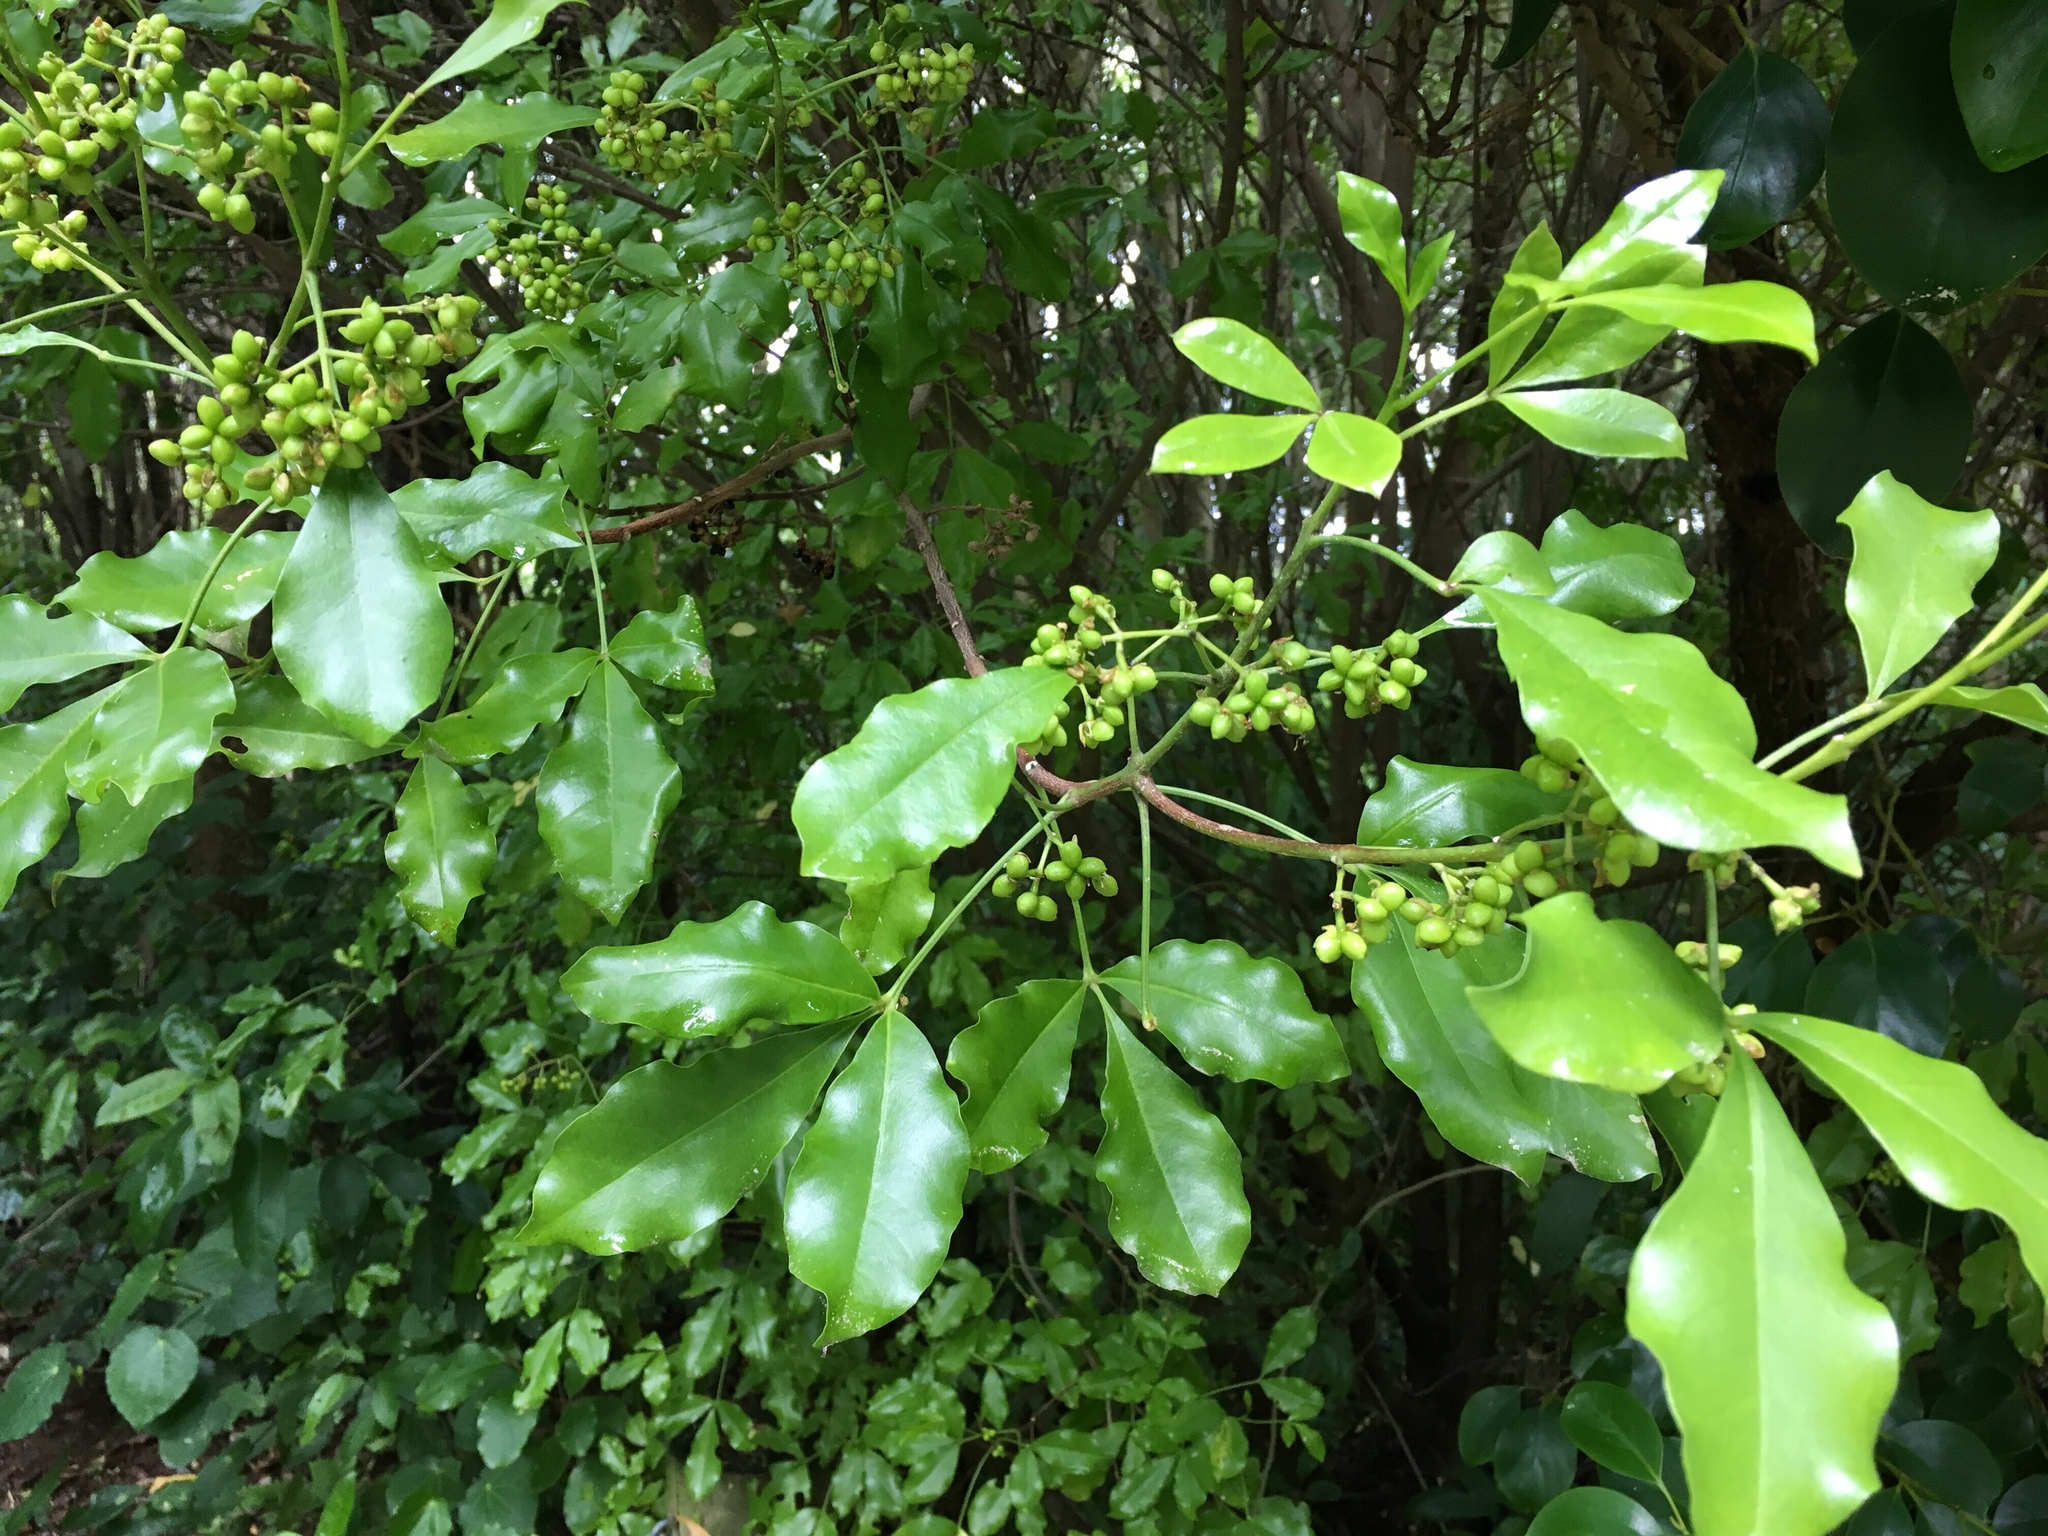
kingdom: Plantae
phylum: Tracheophyta
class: Magnoliopsida
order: Sapindales
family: Rutaceae
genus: Melicope
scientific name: Melicope ternata
